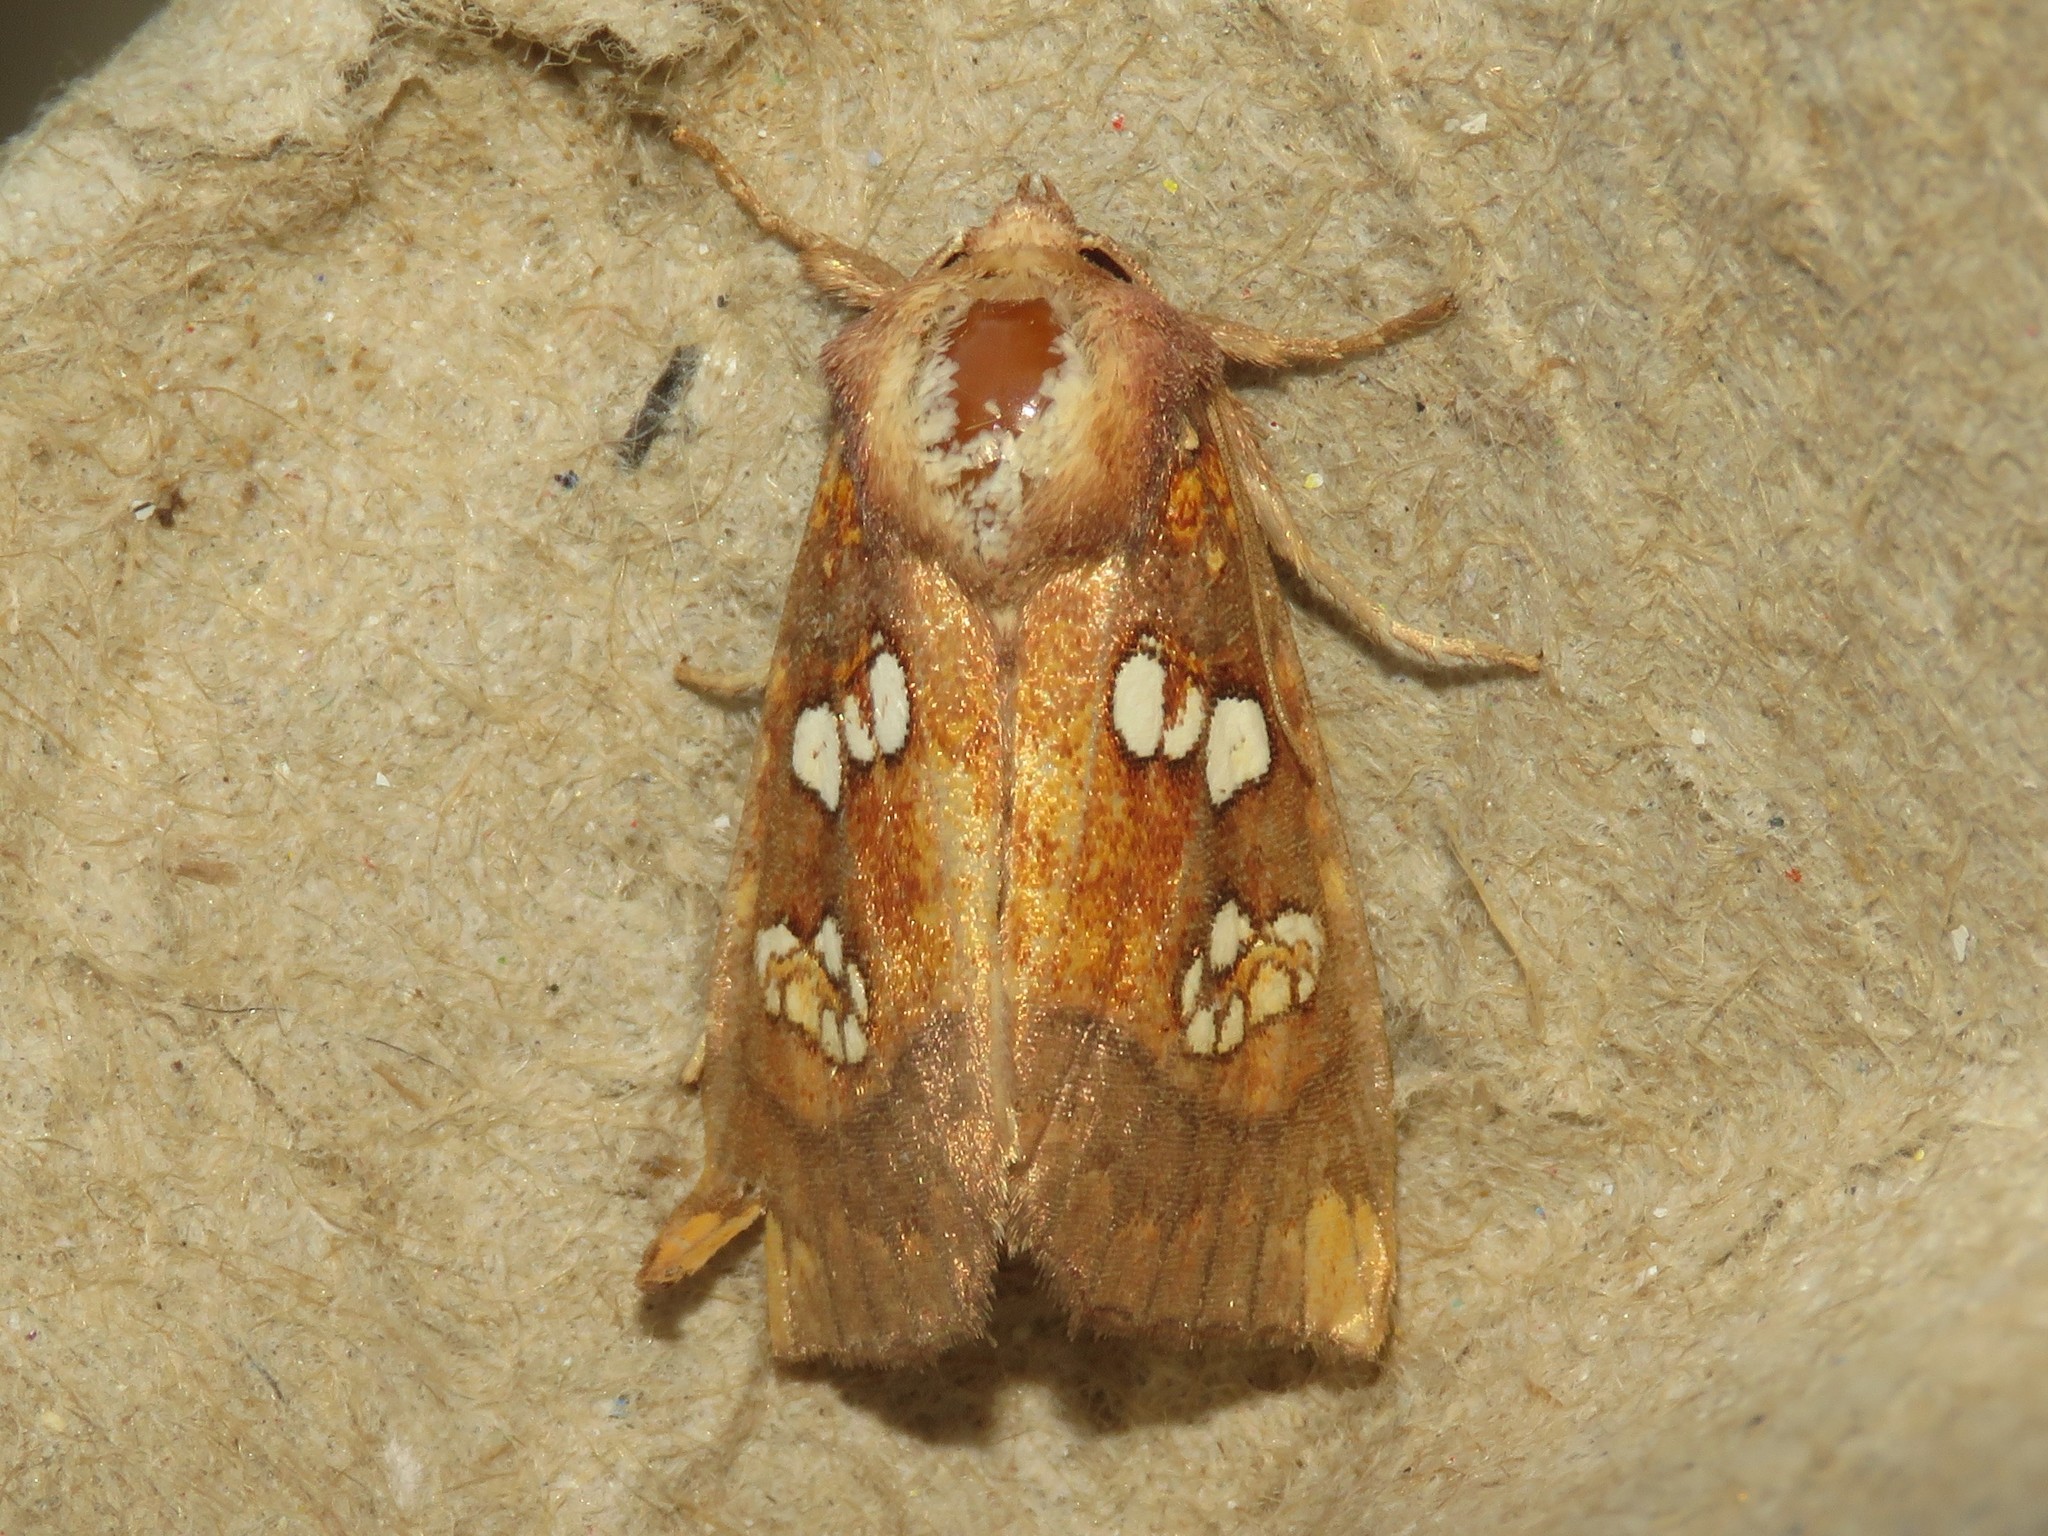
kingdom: Animalia
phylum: Arthropoda
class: Insecta
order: Lepidoptera
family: Noctuidae
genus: Papaipema
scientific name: Papaipema baptisiae
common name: Wild indigo borer moth
